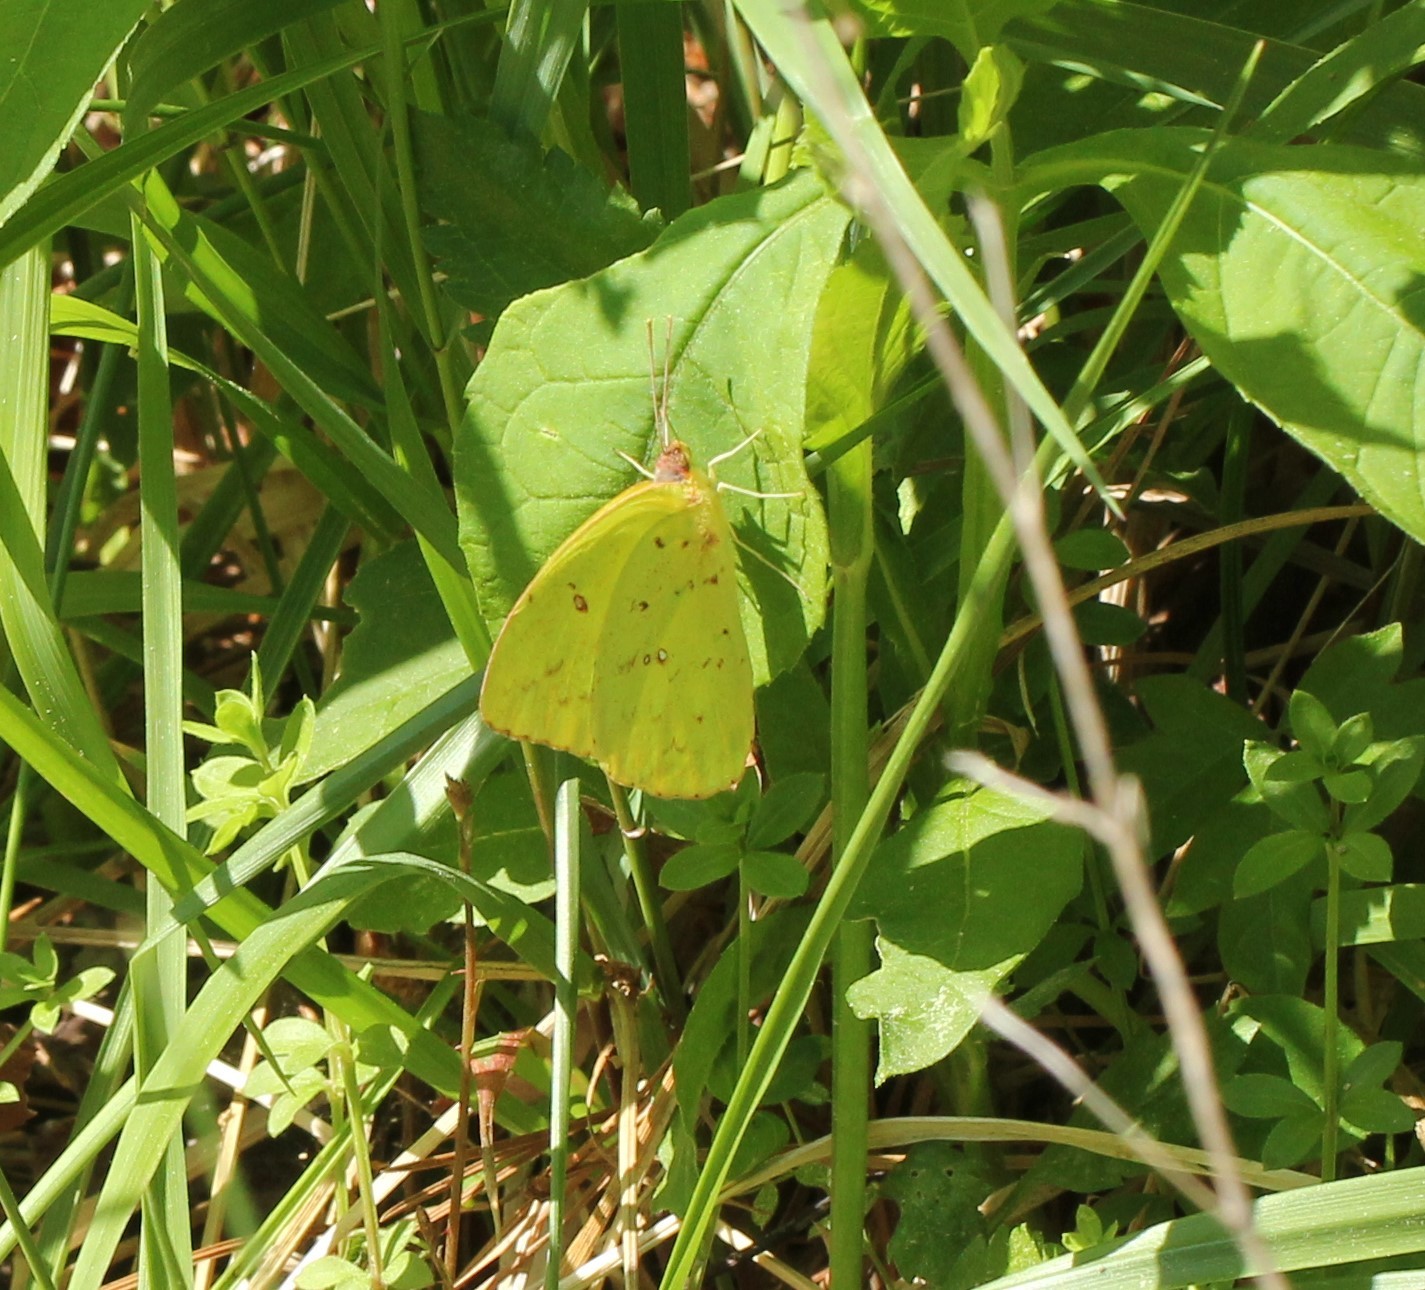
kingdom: Animalia
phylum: Arthropoda
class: Insecta
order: Lepidoptera
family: Pieridae
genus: Phoebis
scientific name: Phoebis sennae
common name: Cloudless sulphur
